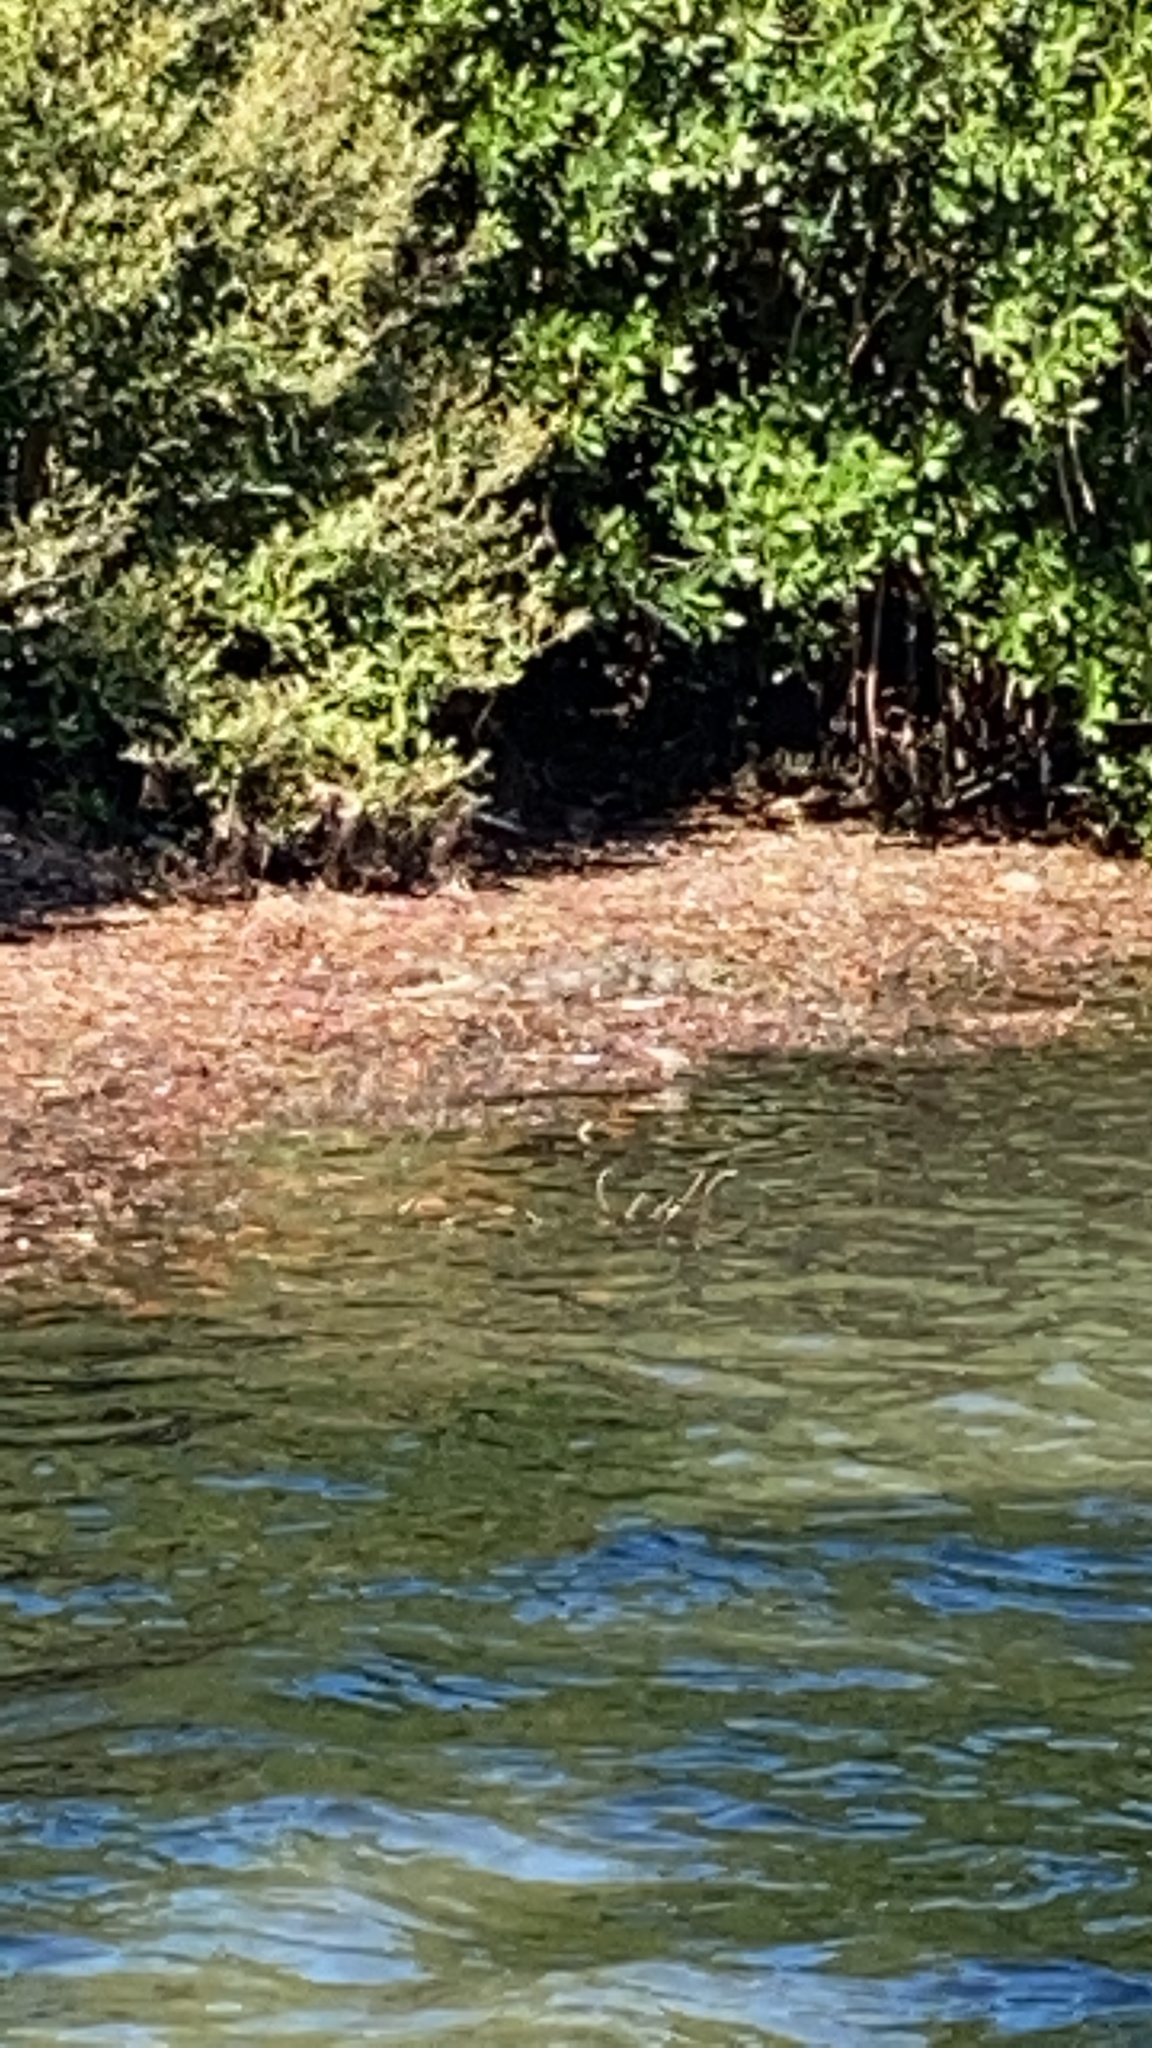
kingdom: Animalia
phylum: Chordata
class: Crocodylia
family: Crocodylidae
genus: Crocodylus
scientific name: Crocodylus acutus
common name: American crocodile
